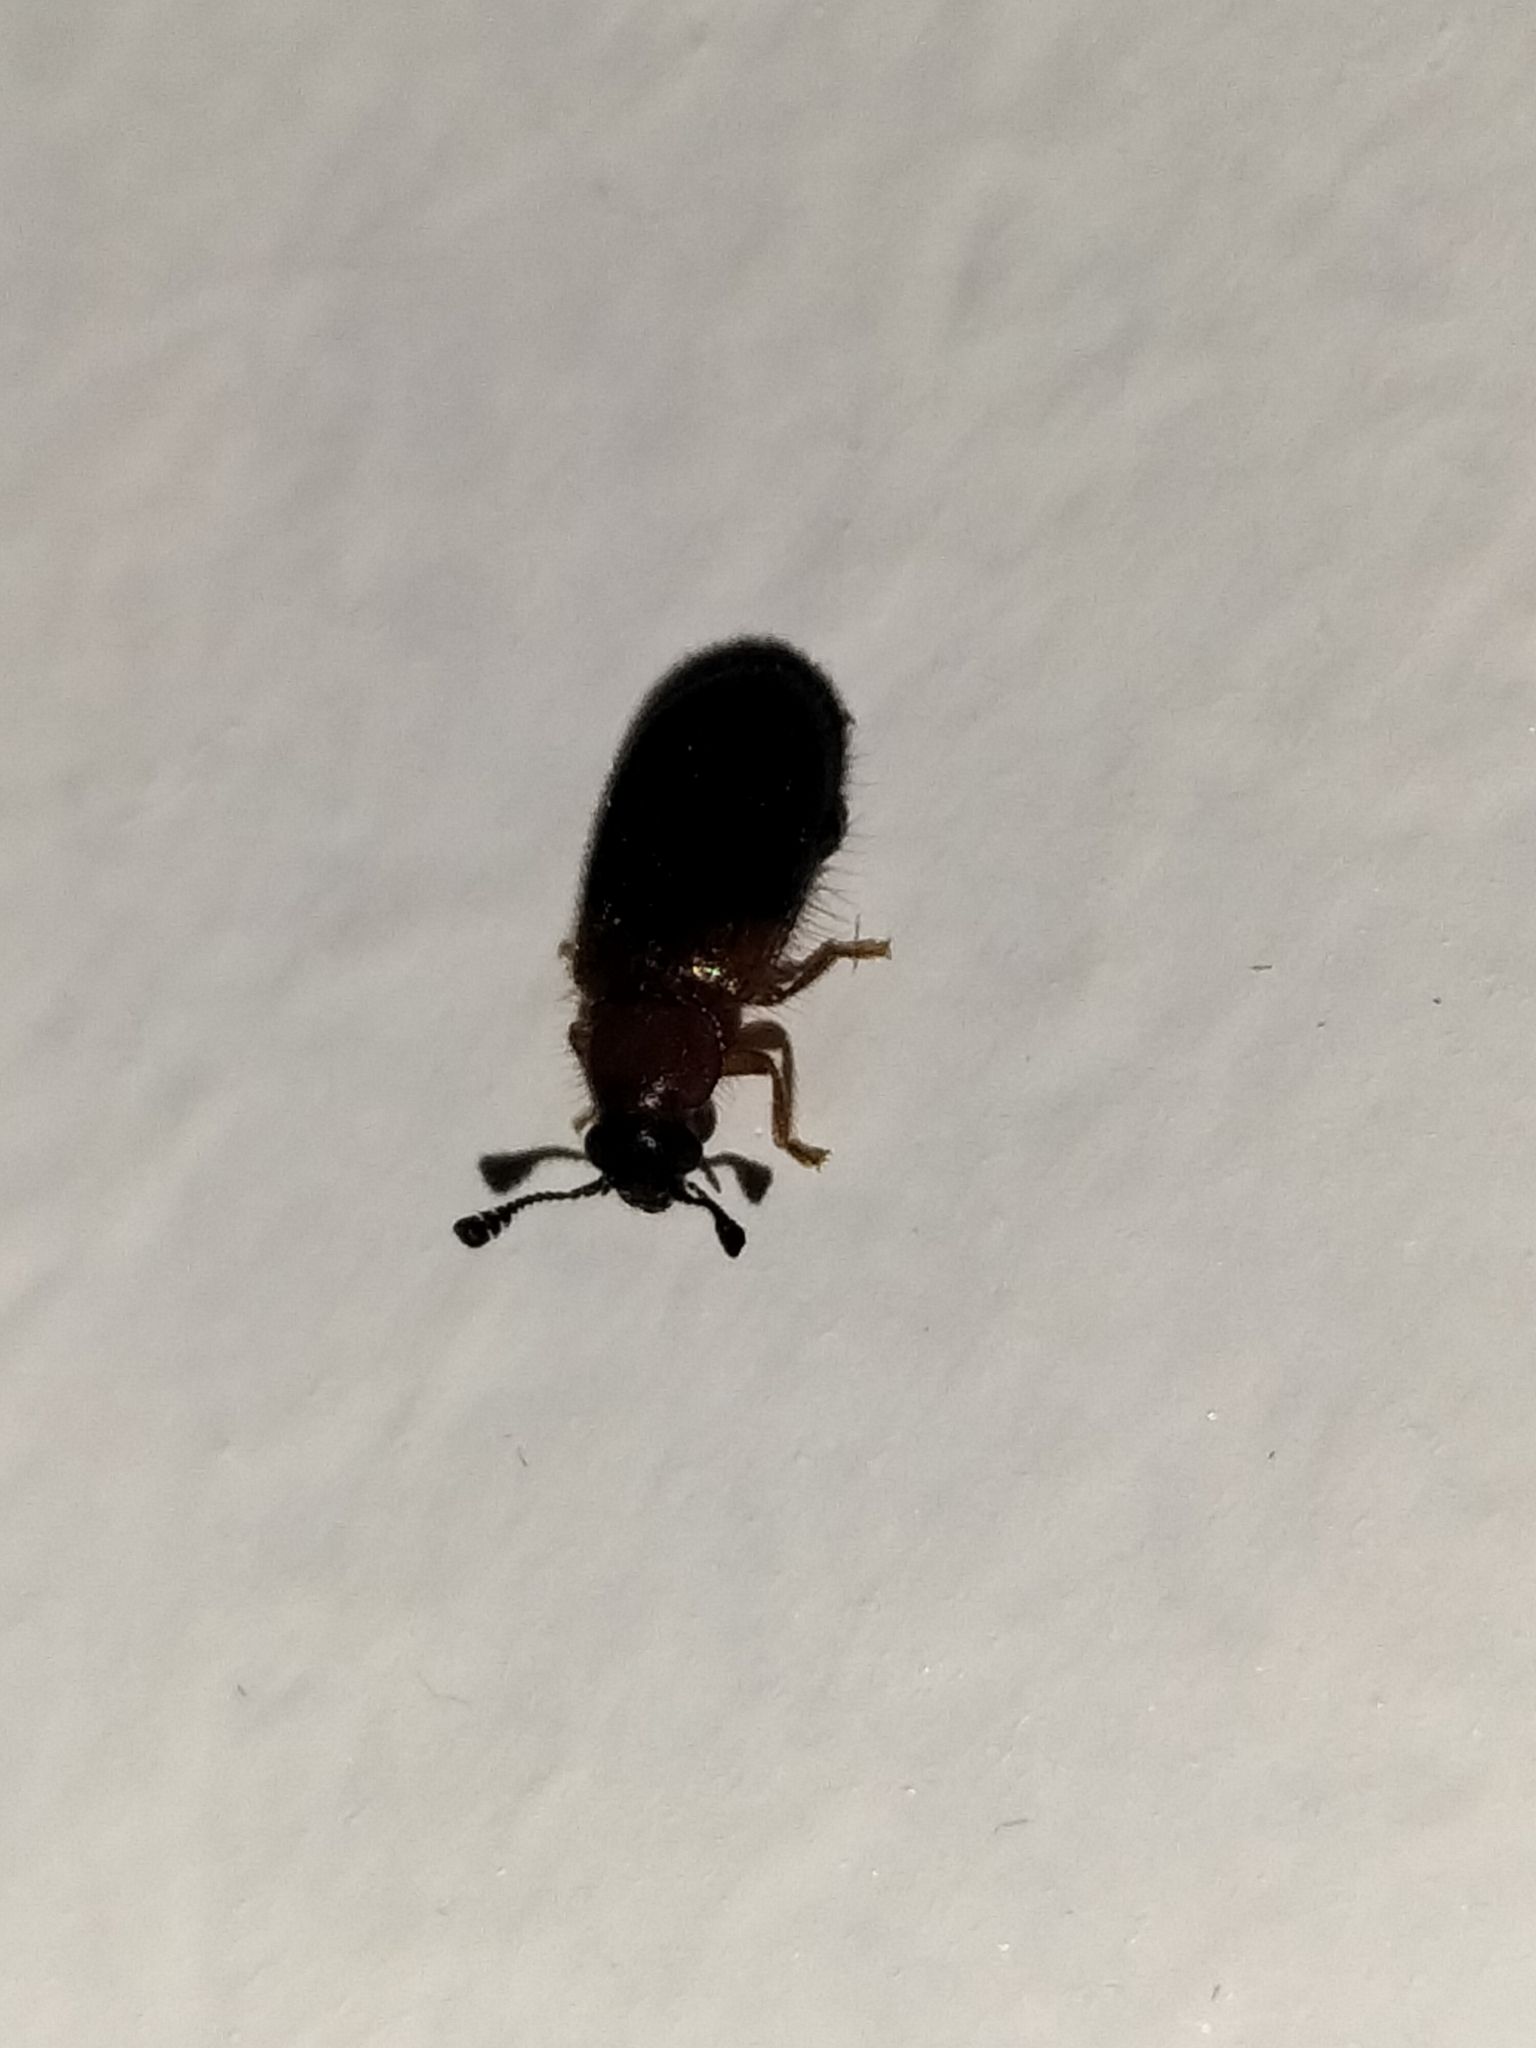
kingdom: Animalia
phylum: Arthropoda
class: Insecta
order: Coleoptera
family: Cleridae
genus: Necrobia
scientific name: Necrobia ruficollis
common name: Redshouldered ham beetle
